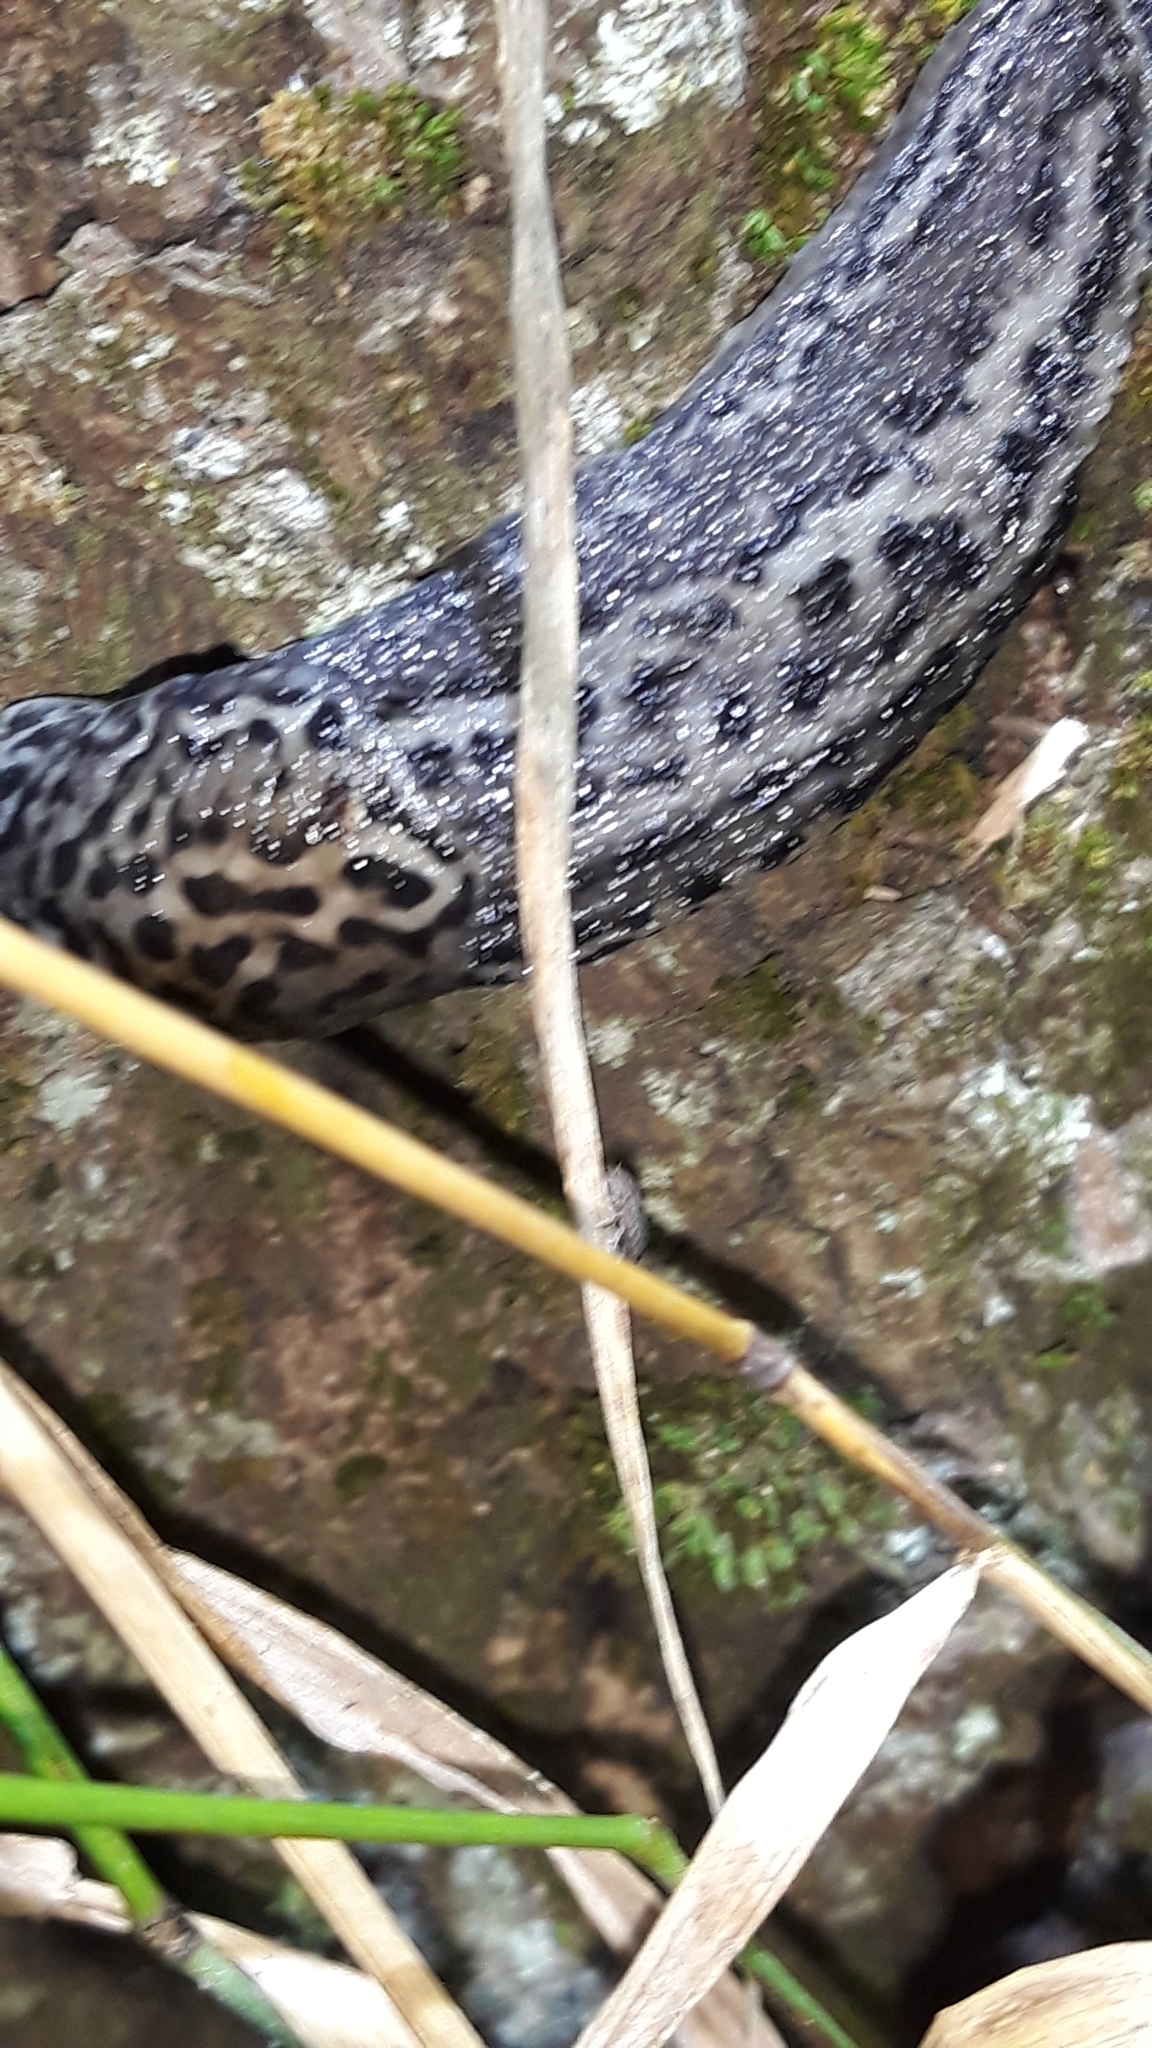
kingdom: Animalia
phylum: Mollusca
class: Gastropoda
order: Stylommatophora
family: Limacidae
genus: Limax
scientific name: Limax maximus
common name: Great grey slug
